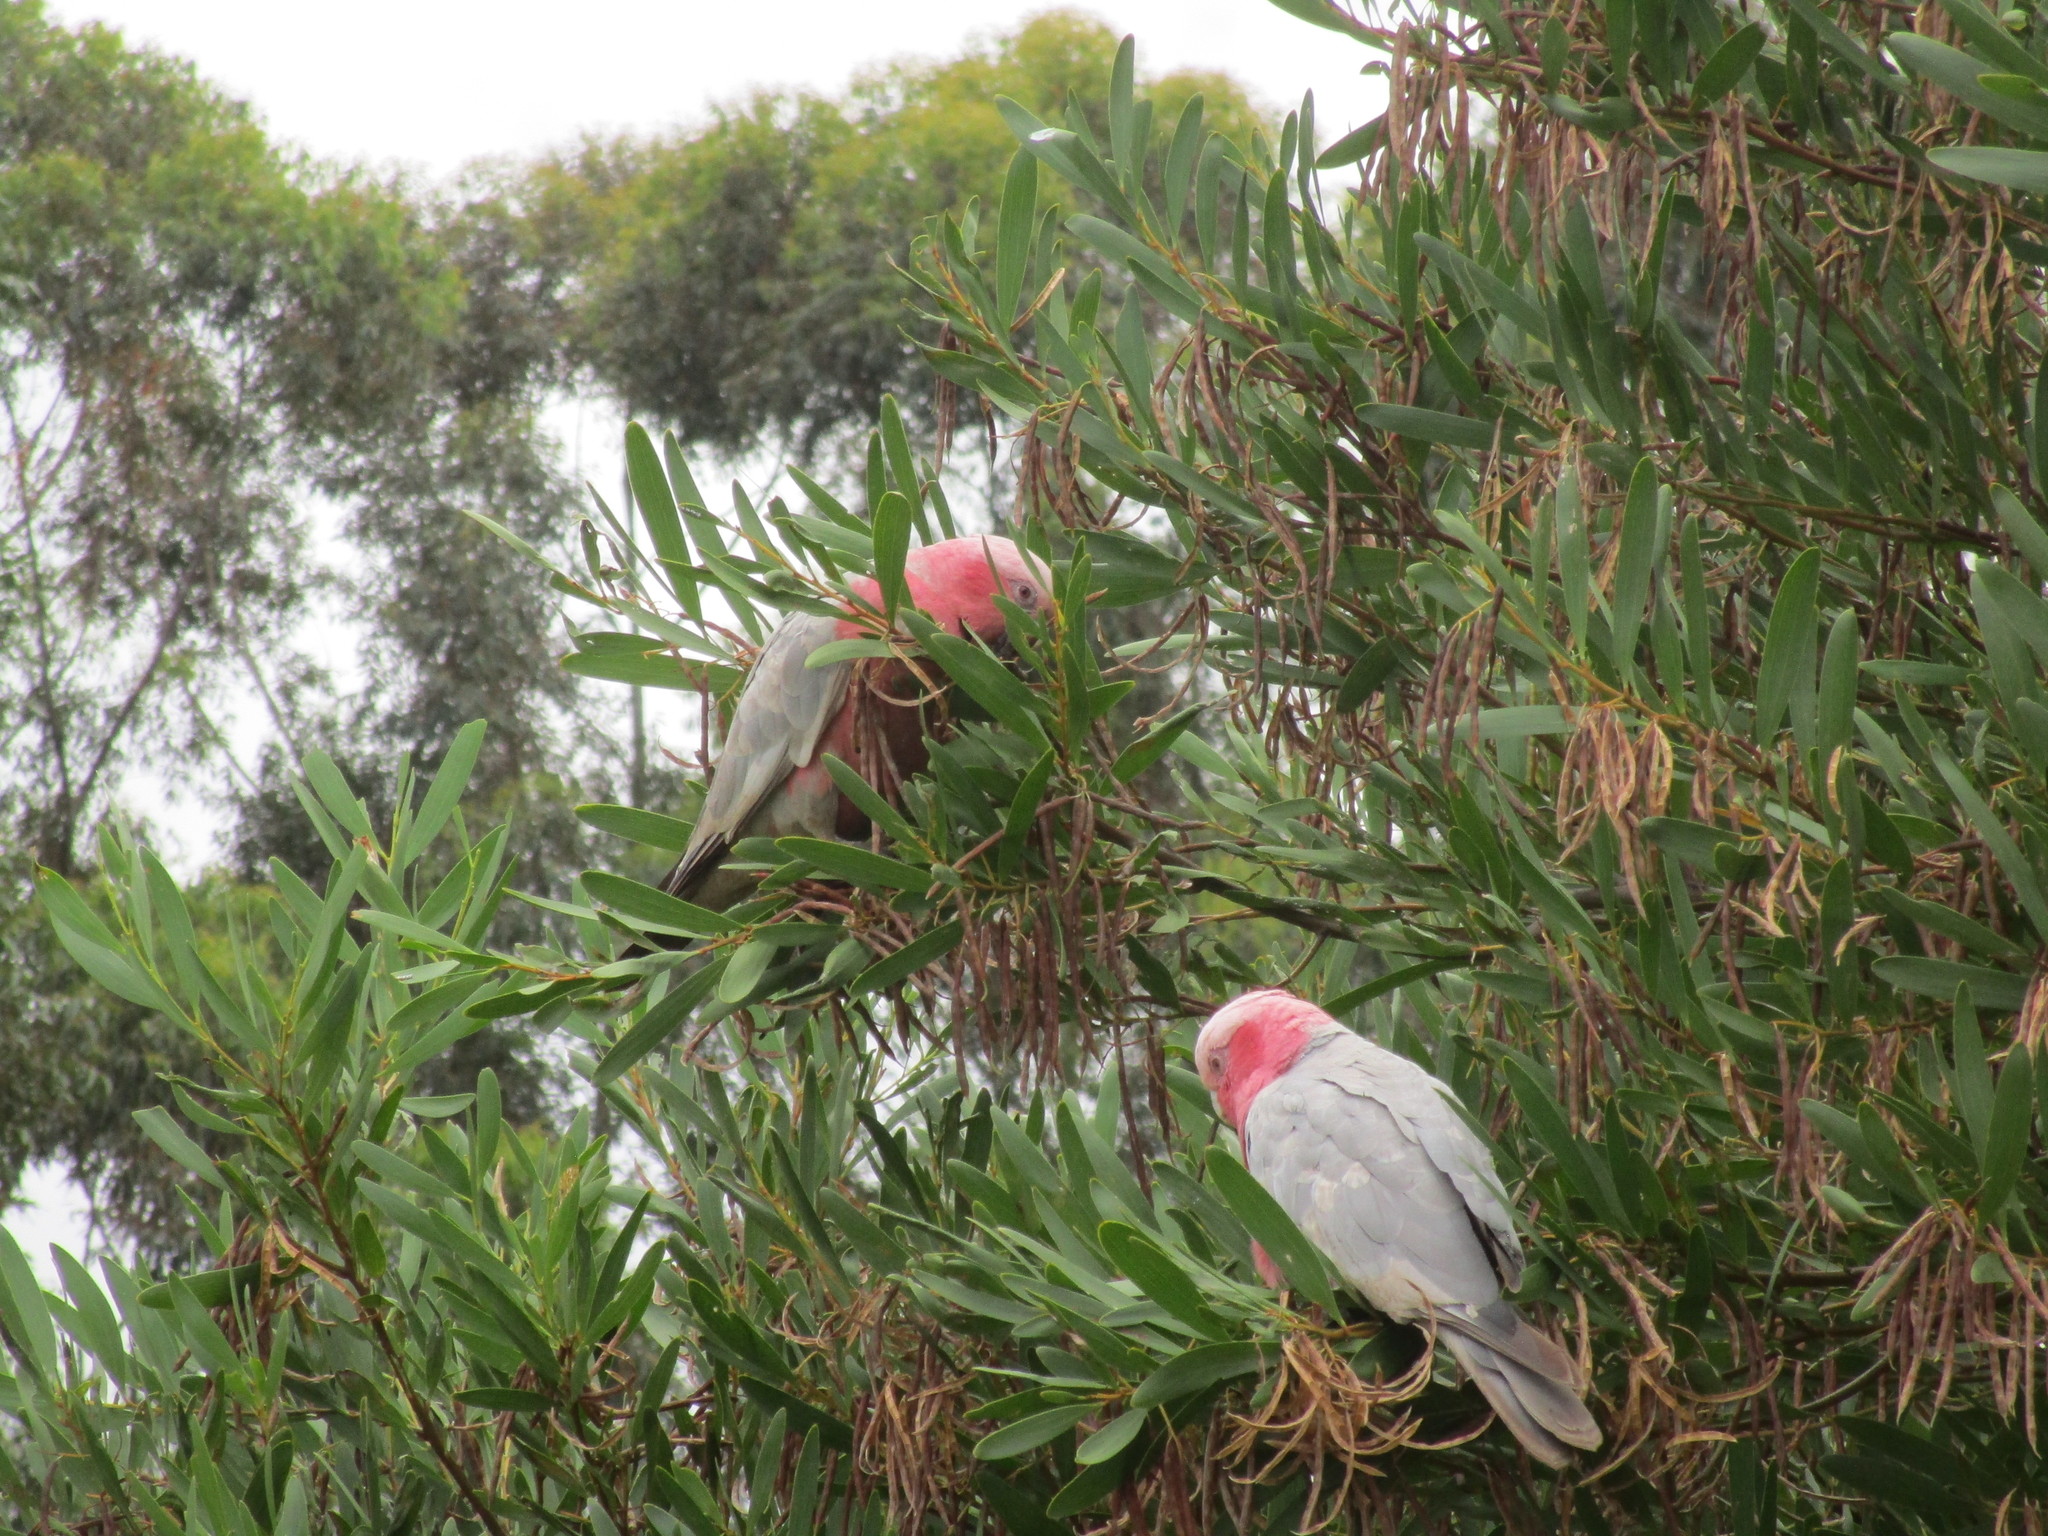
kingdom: Animalia
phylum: Chordata
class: Aves
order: Psittaciformes
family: Psittacidae
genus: Eolophus
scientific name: Eolophus roseicapilla
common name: Galah
